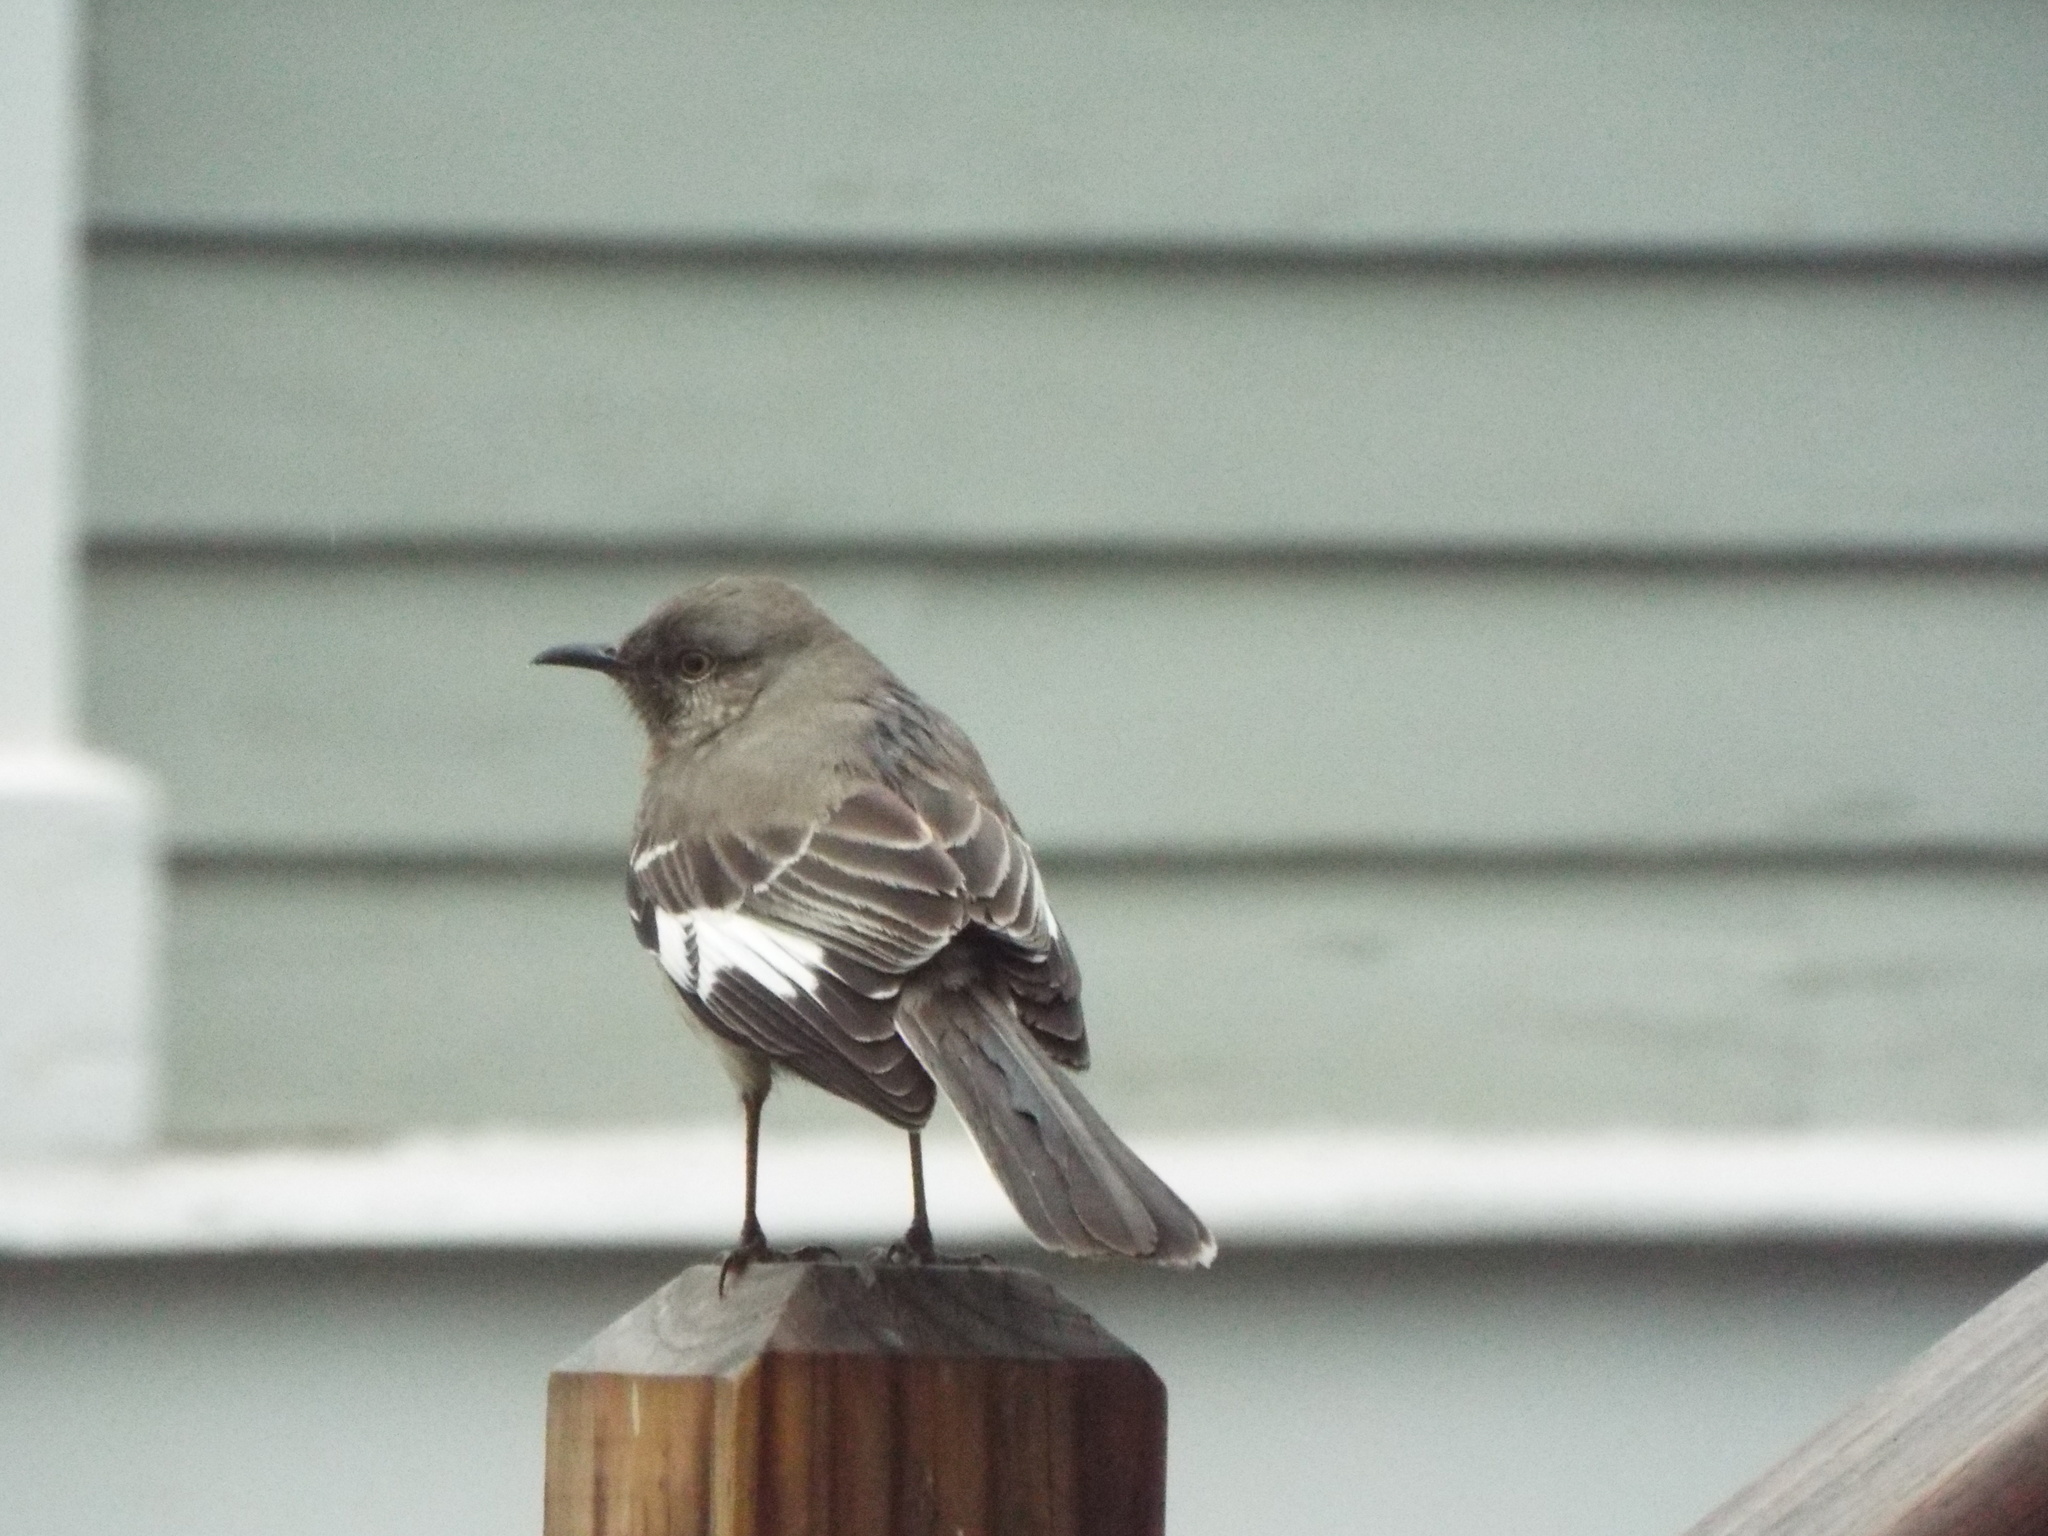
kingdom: Animalia
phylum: Chordata
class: Aves
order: Passeriformes
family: Mimidae
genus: Mimus
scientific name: Mimus polyglottos
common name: Northern mockingbird
